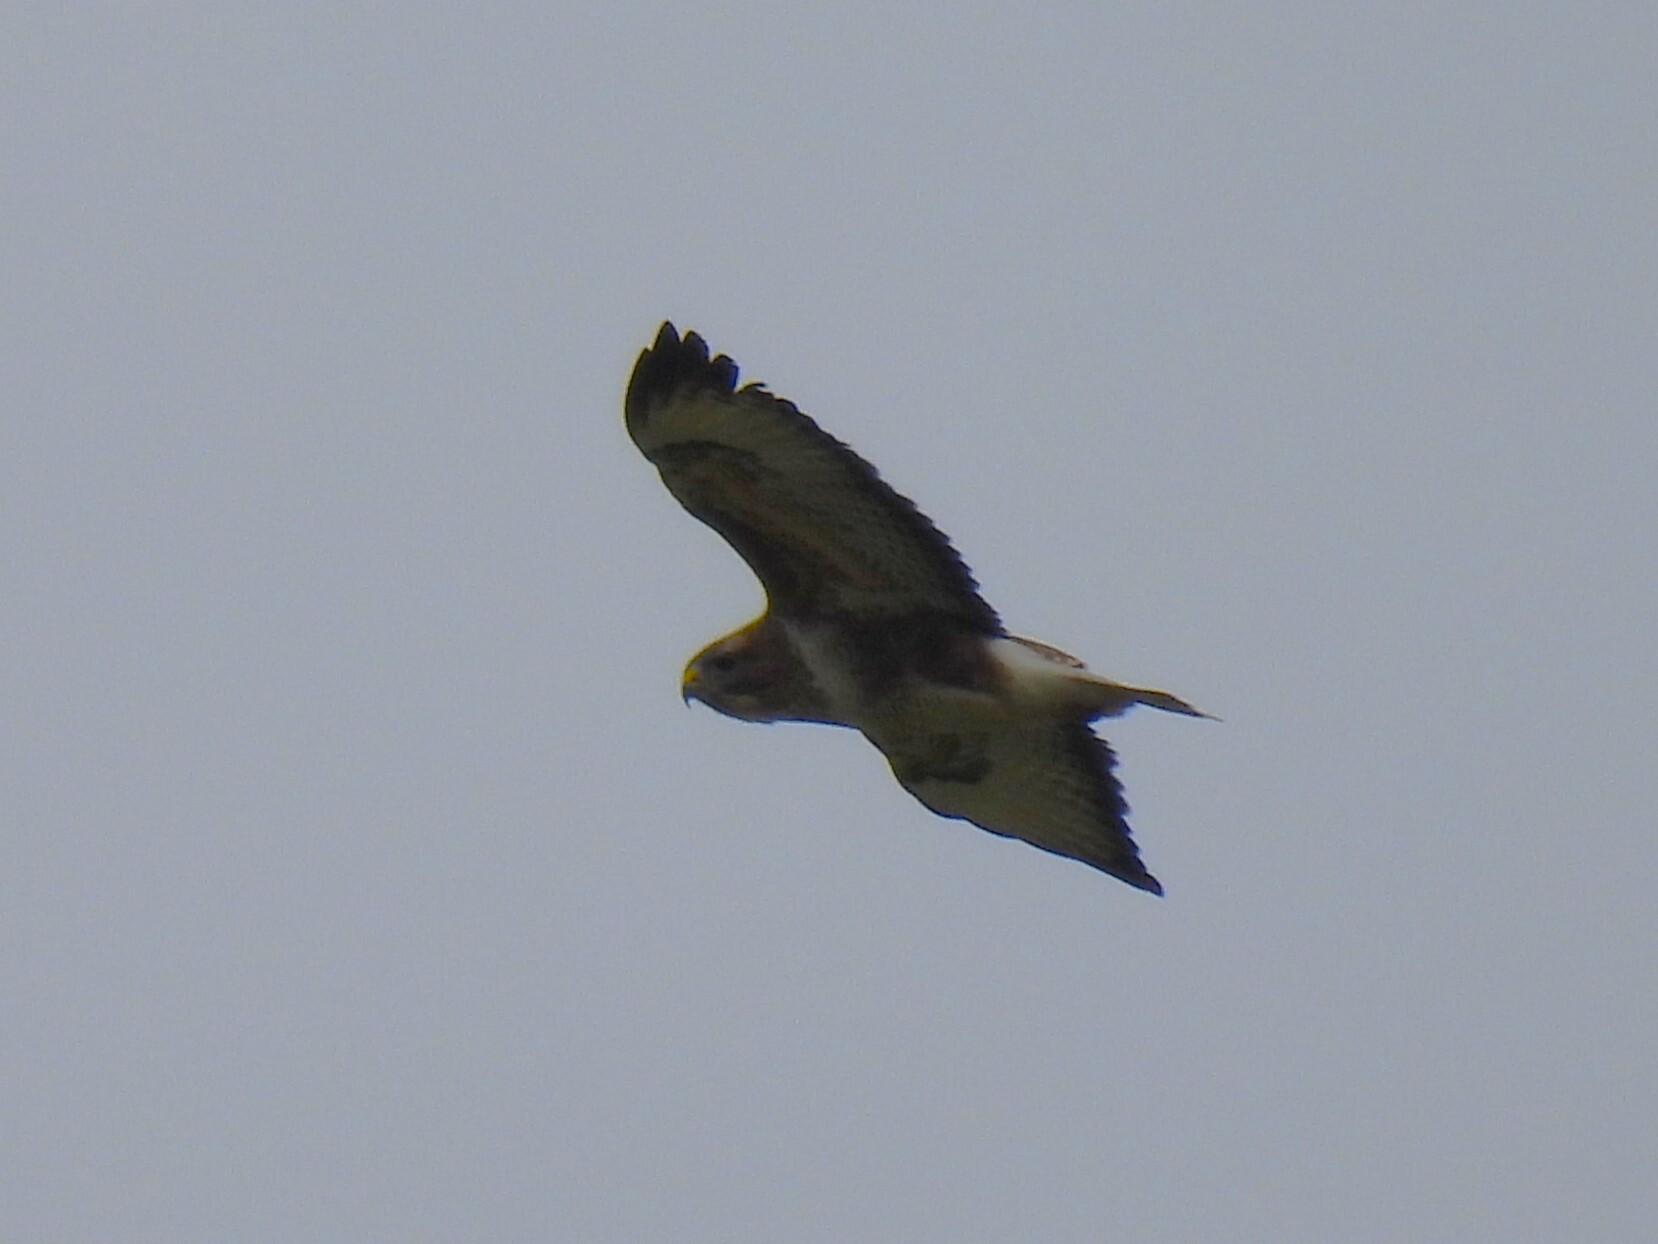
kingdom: Animalia
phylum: Chordata
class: Aves
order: Accipitriformes
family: Accipitridae
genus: Buteo
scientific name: Buteo buteo
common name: Common buzzard
